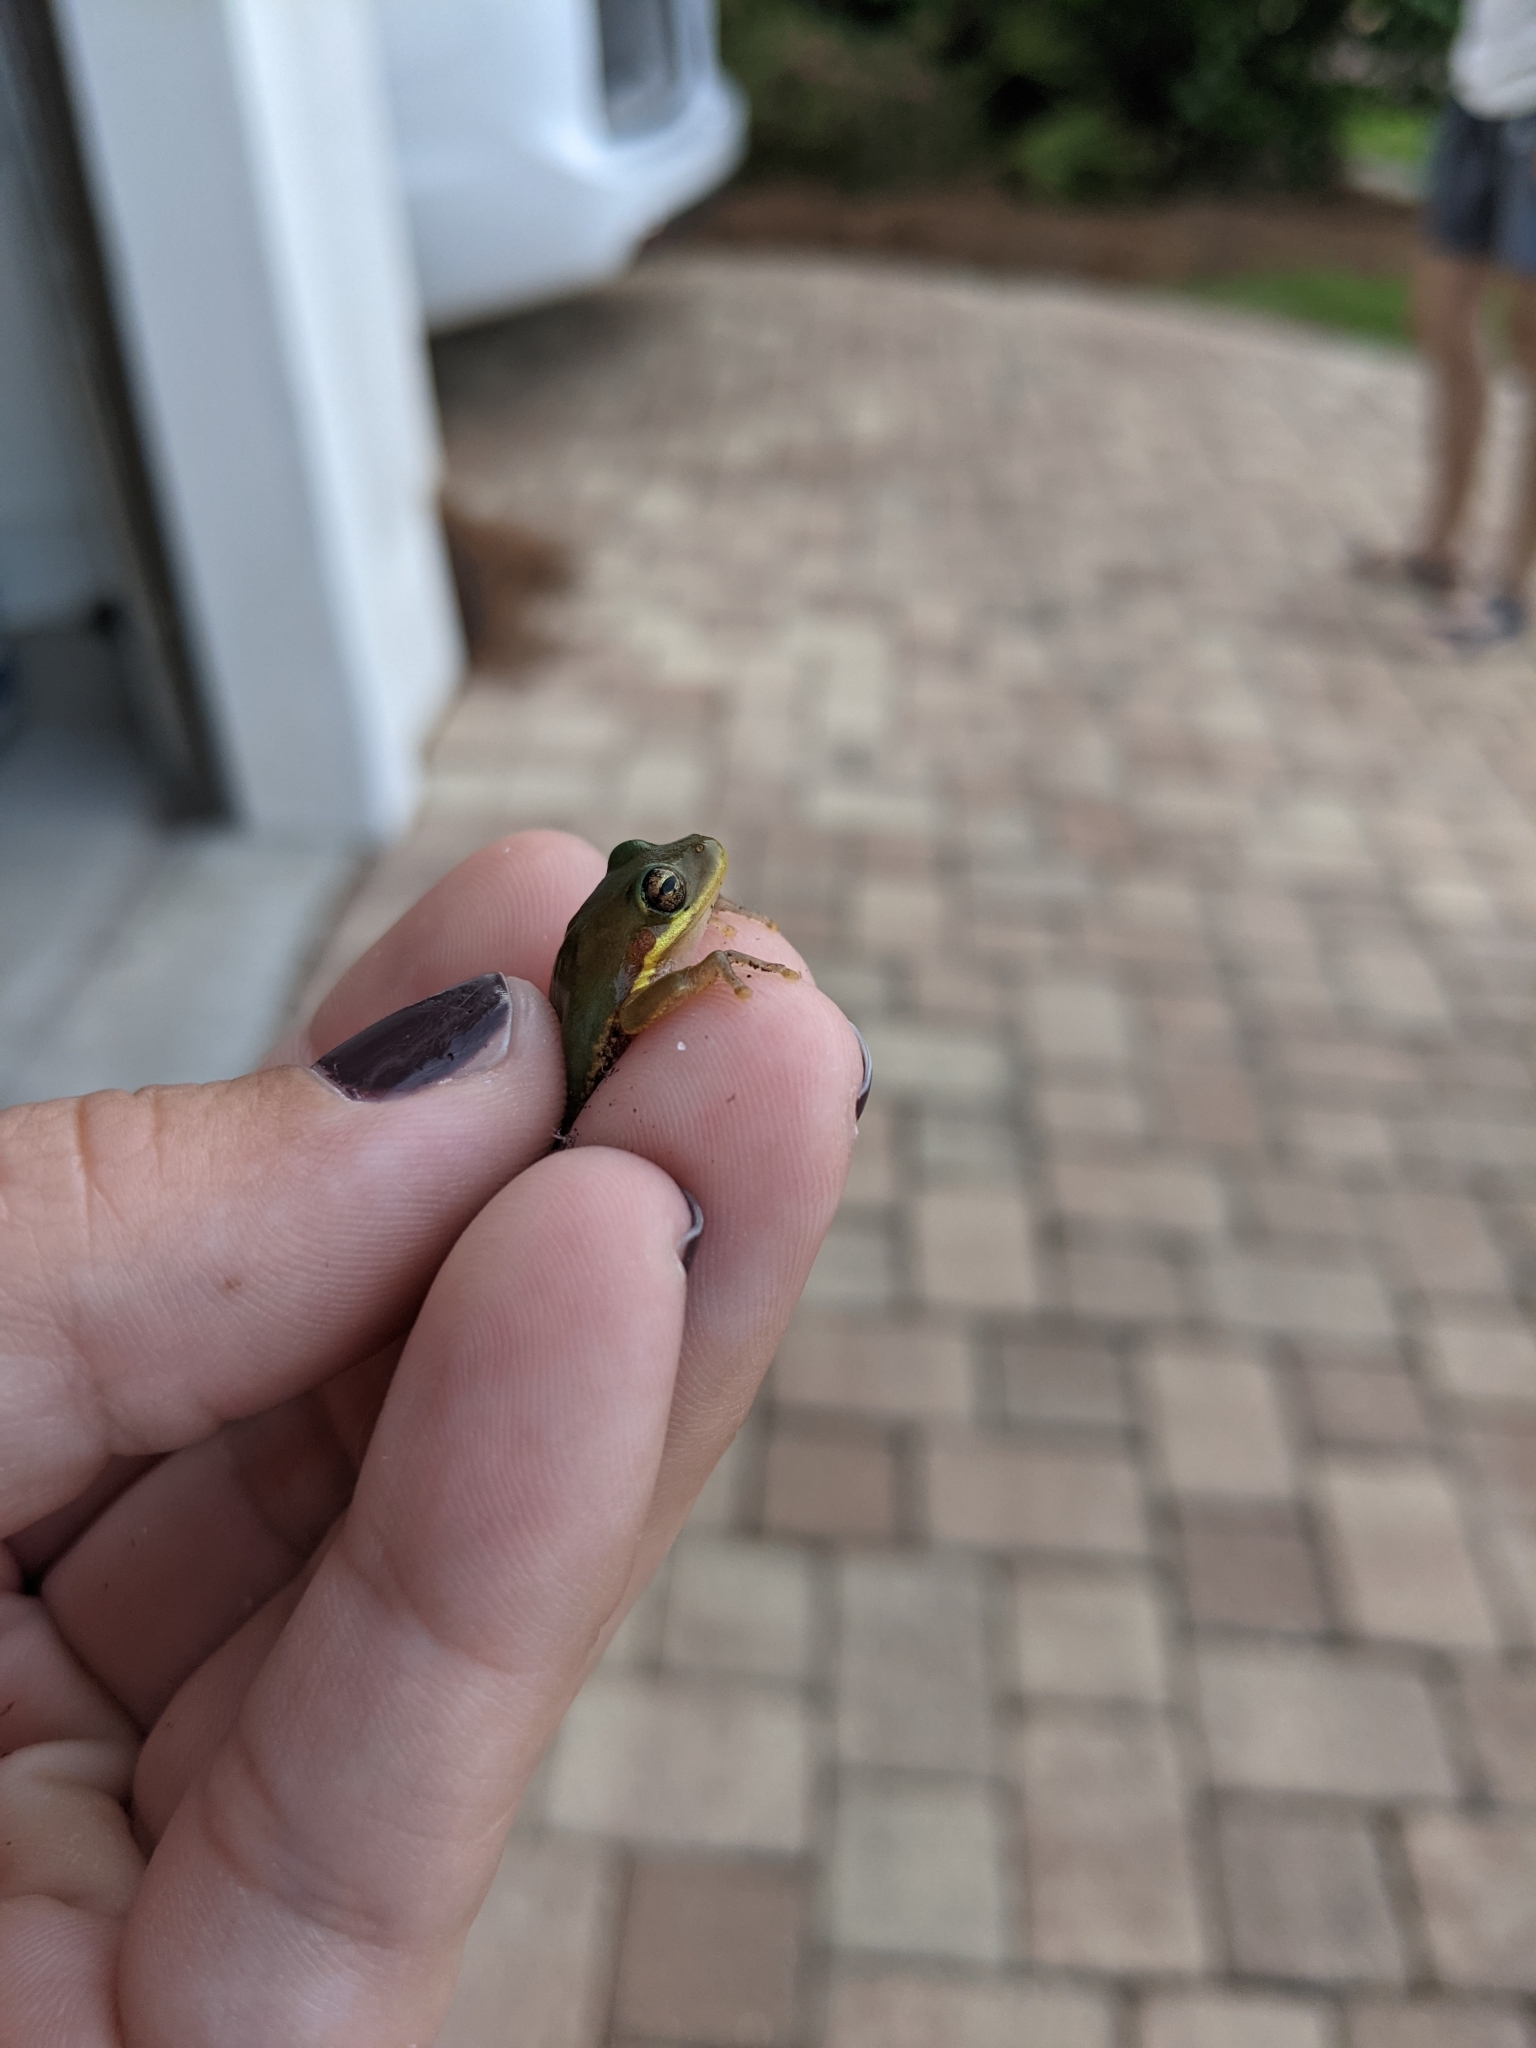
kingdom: Animalia
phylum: Chordata
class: Amphibia
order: Anura
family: Hylidae
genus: Dryophytes
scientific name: Dryophytes squirellus
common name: Squirrel treefrog
